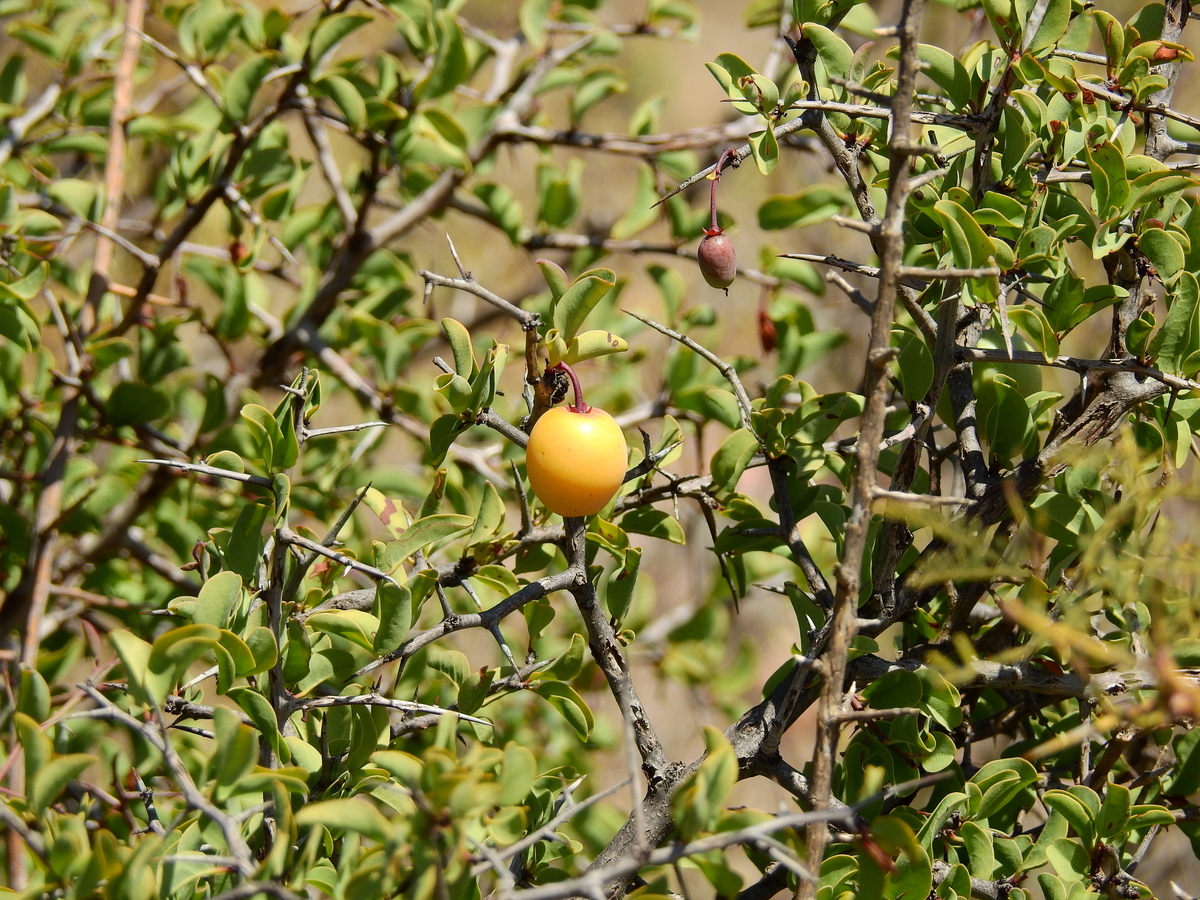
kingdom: Plantae
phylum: Tracheophyta
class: Magnoliopsida
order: Santalales
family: Ximeniaceae
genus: Ximenia
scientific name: Ximenia americana
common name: Tallowwood
